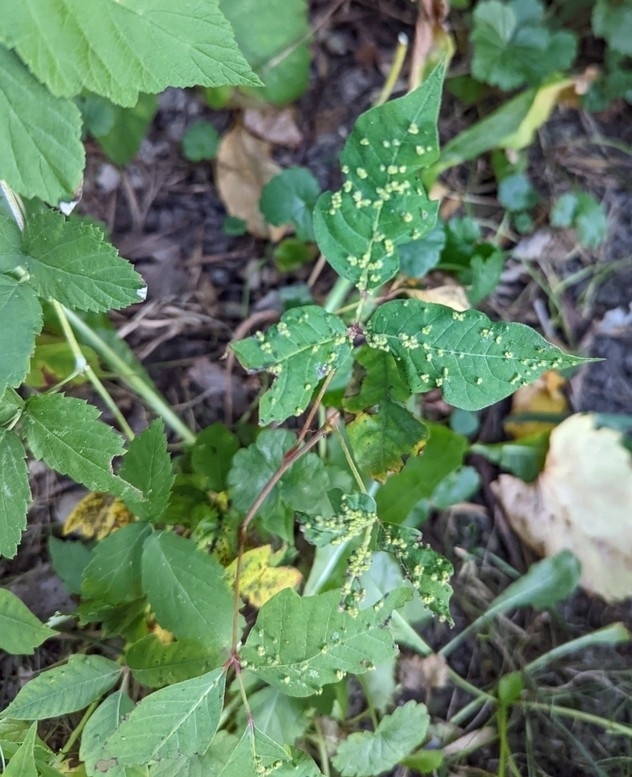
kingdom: Animalia
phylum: Arthropoda
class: Arachnida
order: Trombidiformes
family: Eriophyidae
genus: Aculops
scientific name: Aculops
